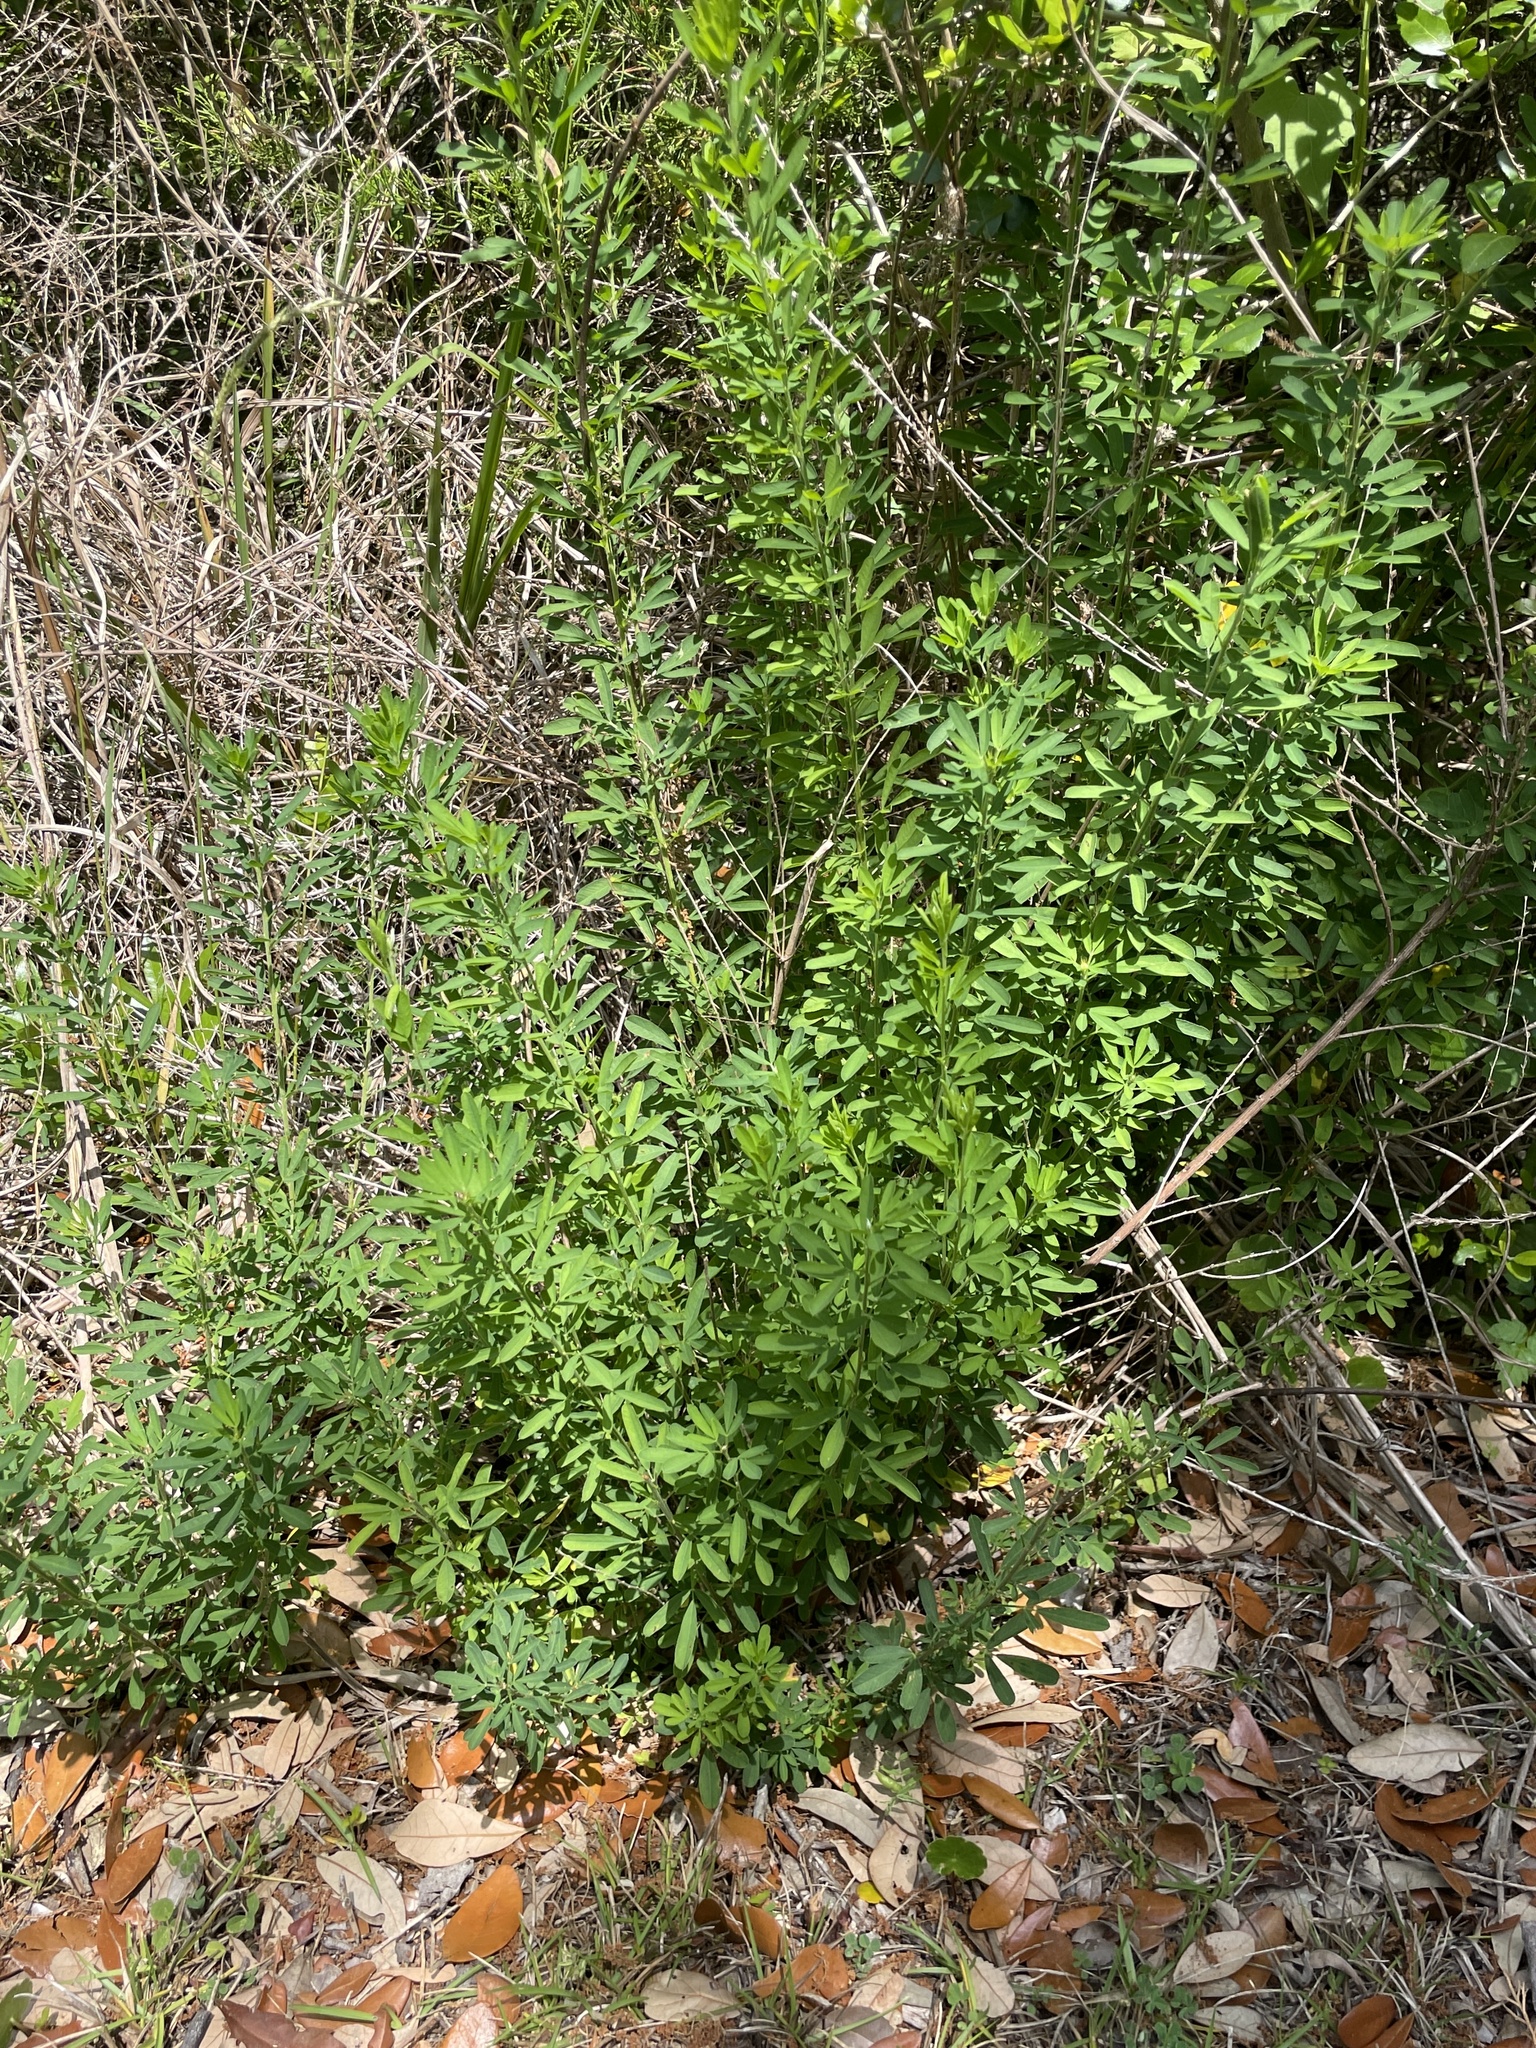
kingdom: Plantae
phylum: Tracheophyta
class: Magnoliopsida
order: Fabales
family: Fabaceae
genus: Lespedeza
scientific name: Lespedeza cuneata
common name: Chinese bush-clover
